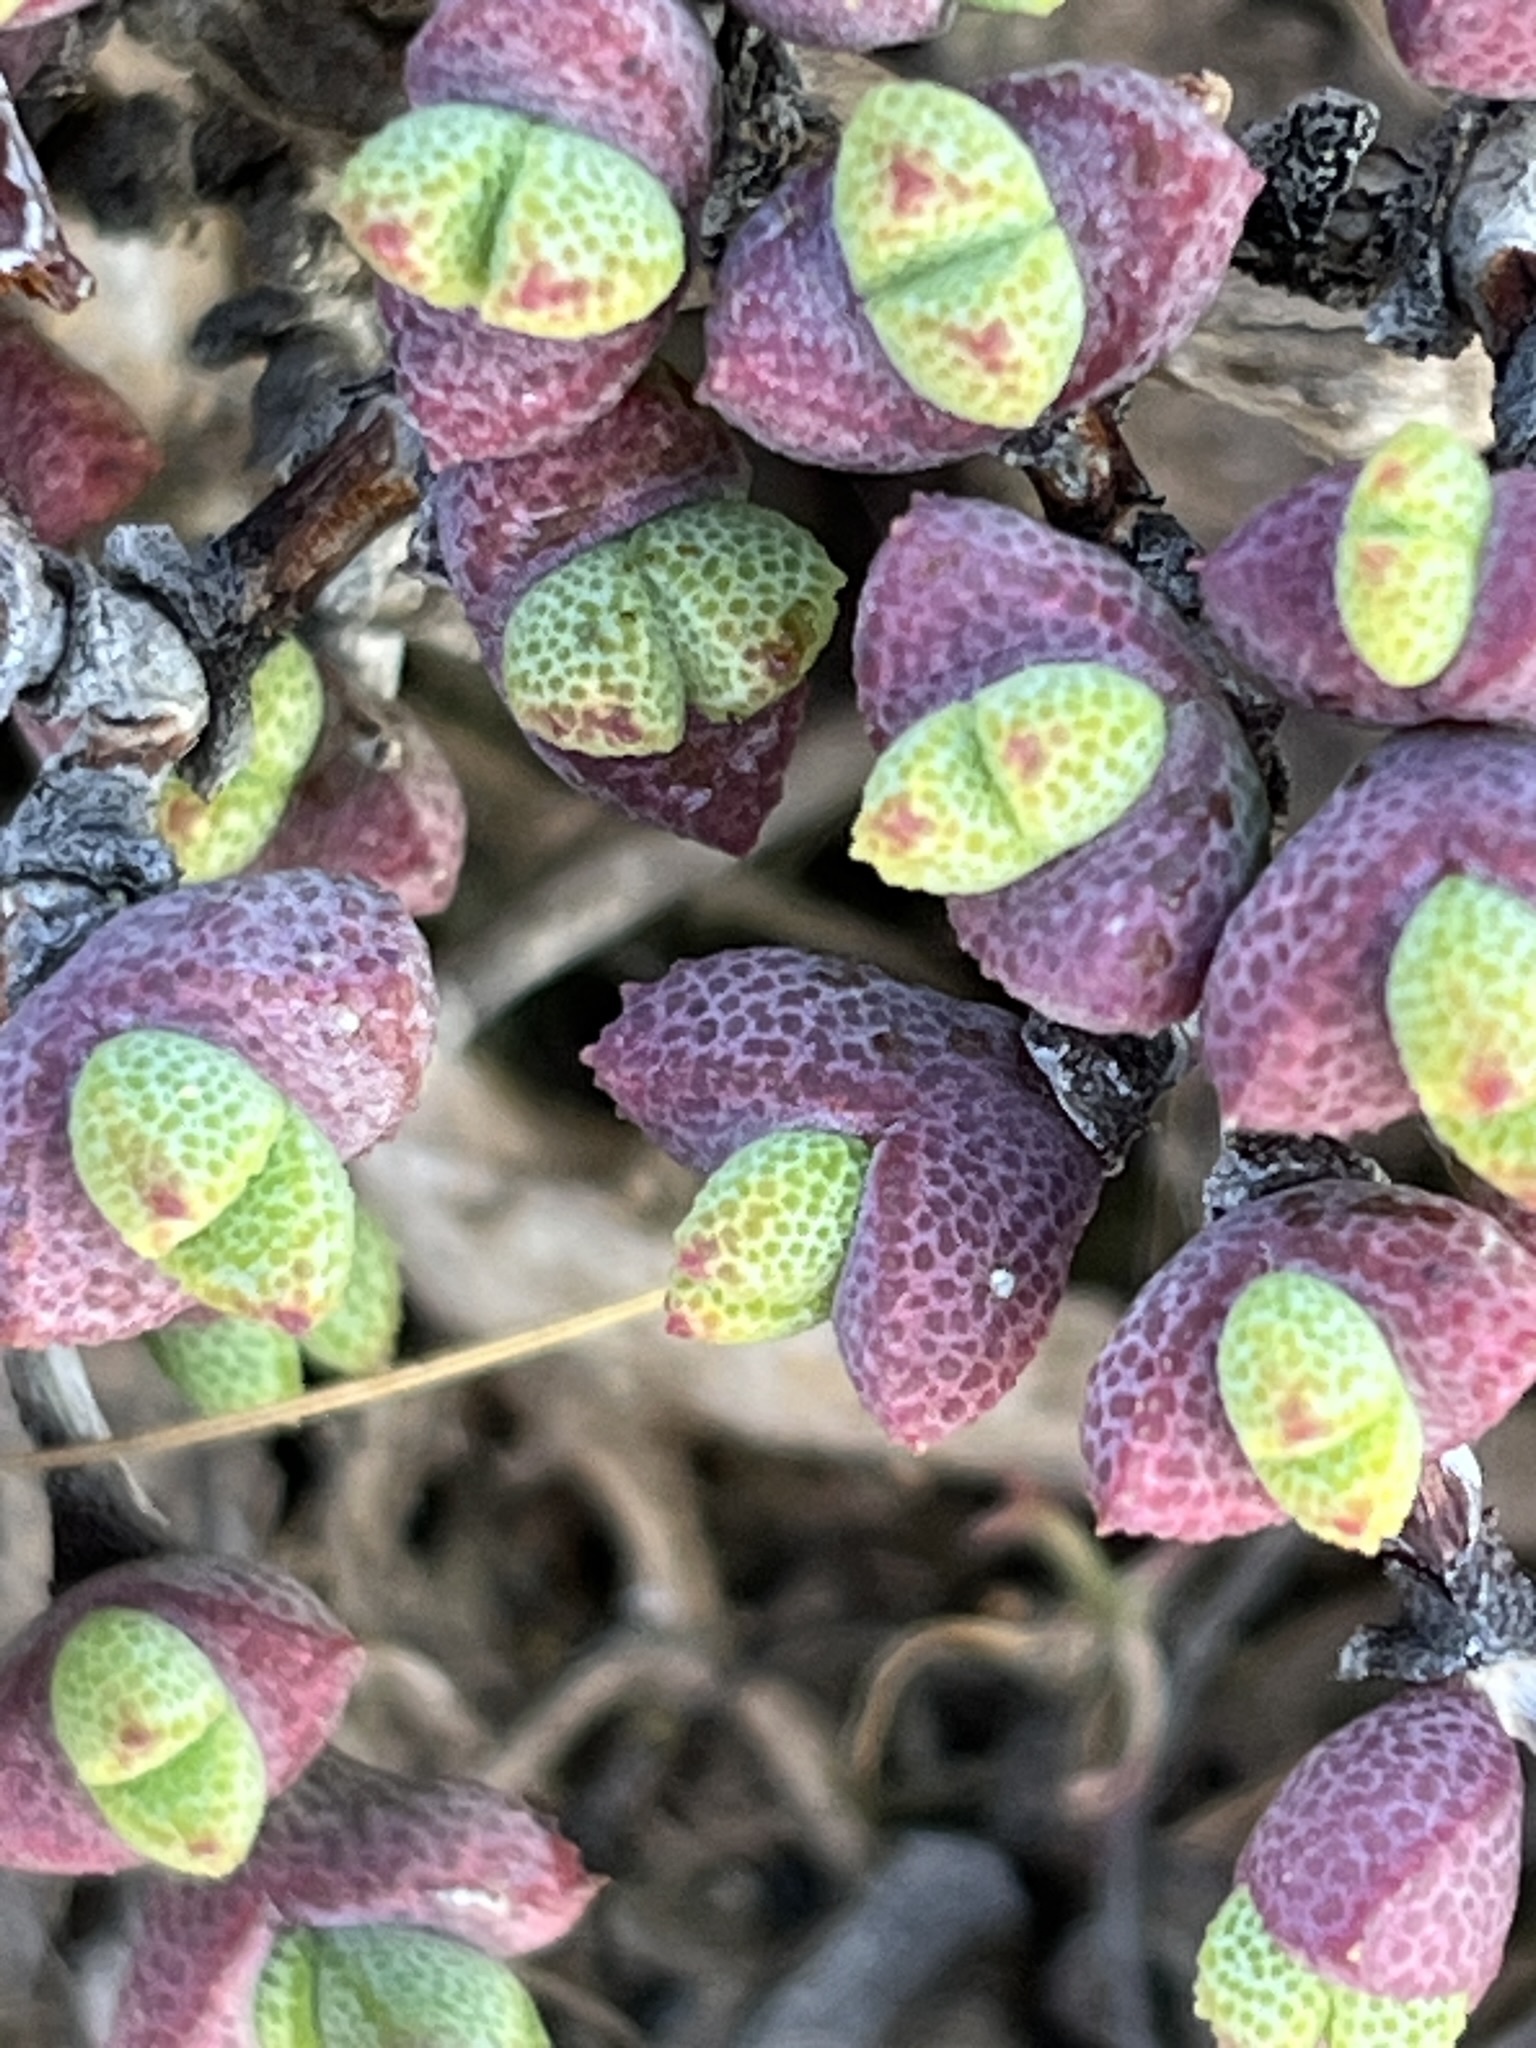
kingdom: Plantae
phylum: Tracheophyta
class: Magnoliopsida
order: Caryophyllales
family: Aizoaceae
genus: Ruschia
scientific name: Ruschia brakdamensis
